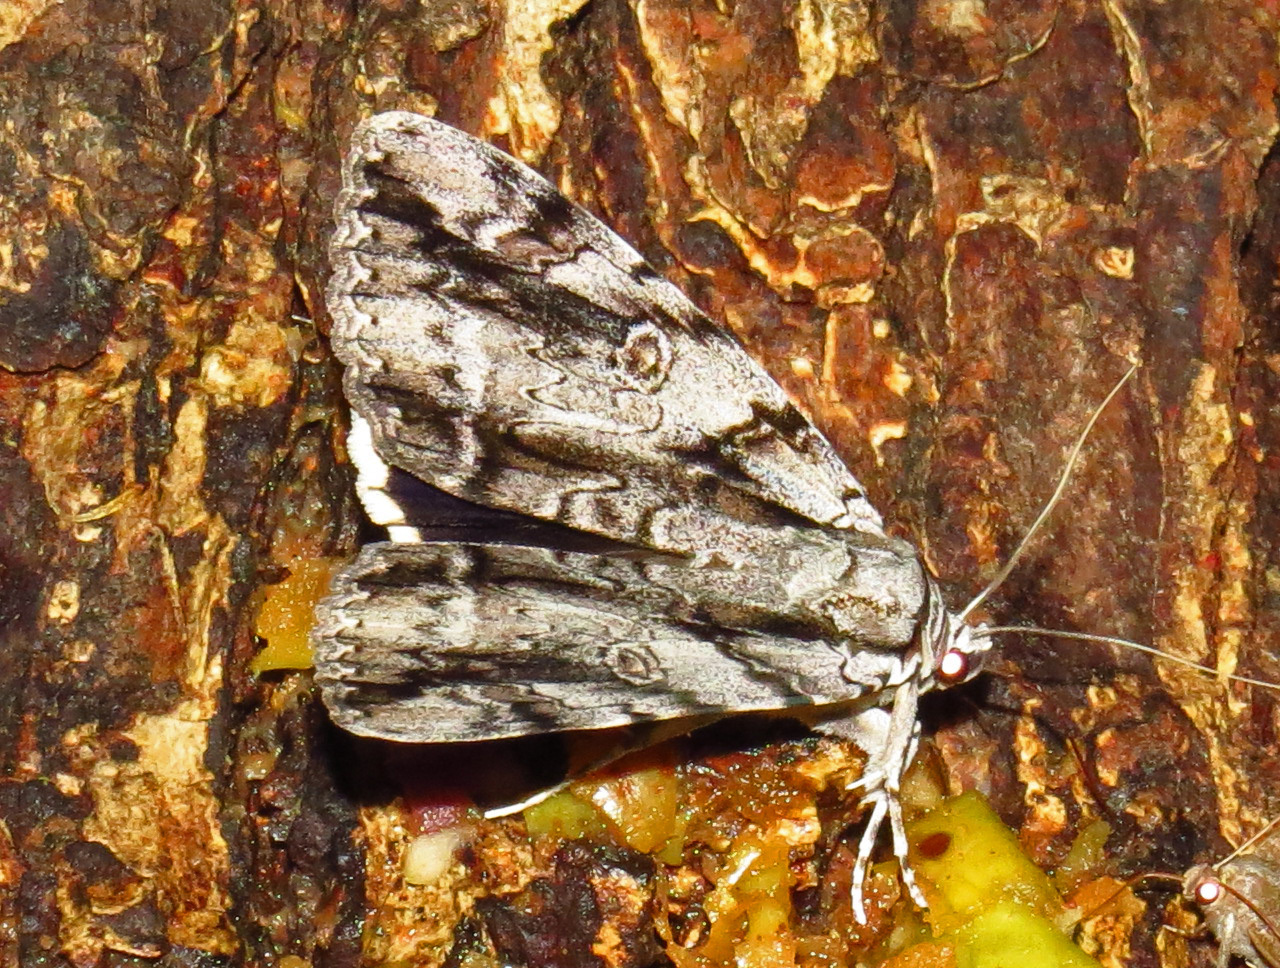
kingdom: Animalia
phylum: Arthropoda
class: Insecta
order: Lepidoptera
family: Erebidae
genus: Catocala
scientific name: Catocala vidua
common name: The widow
